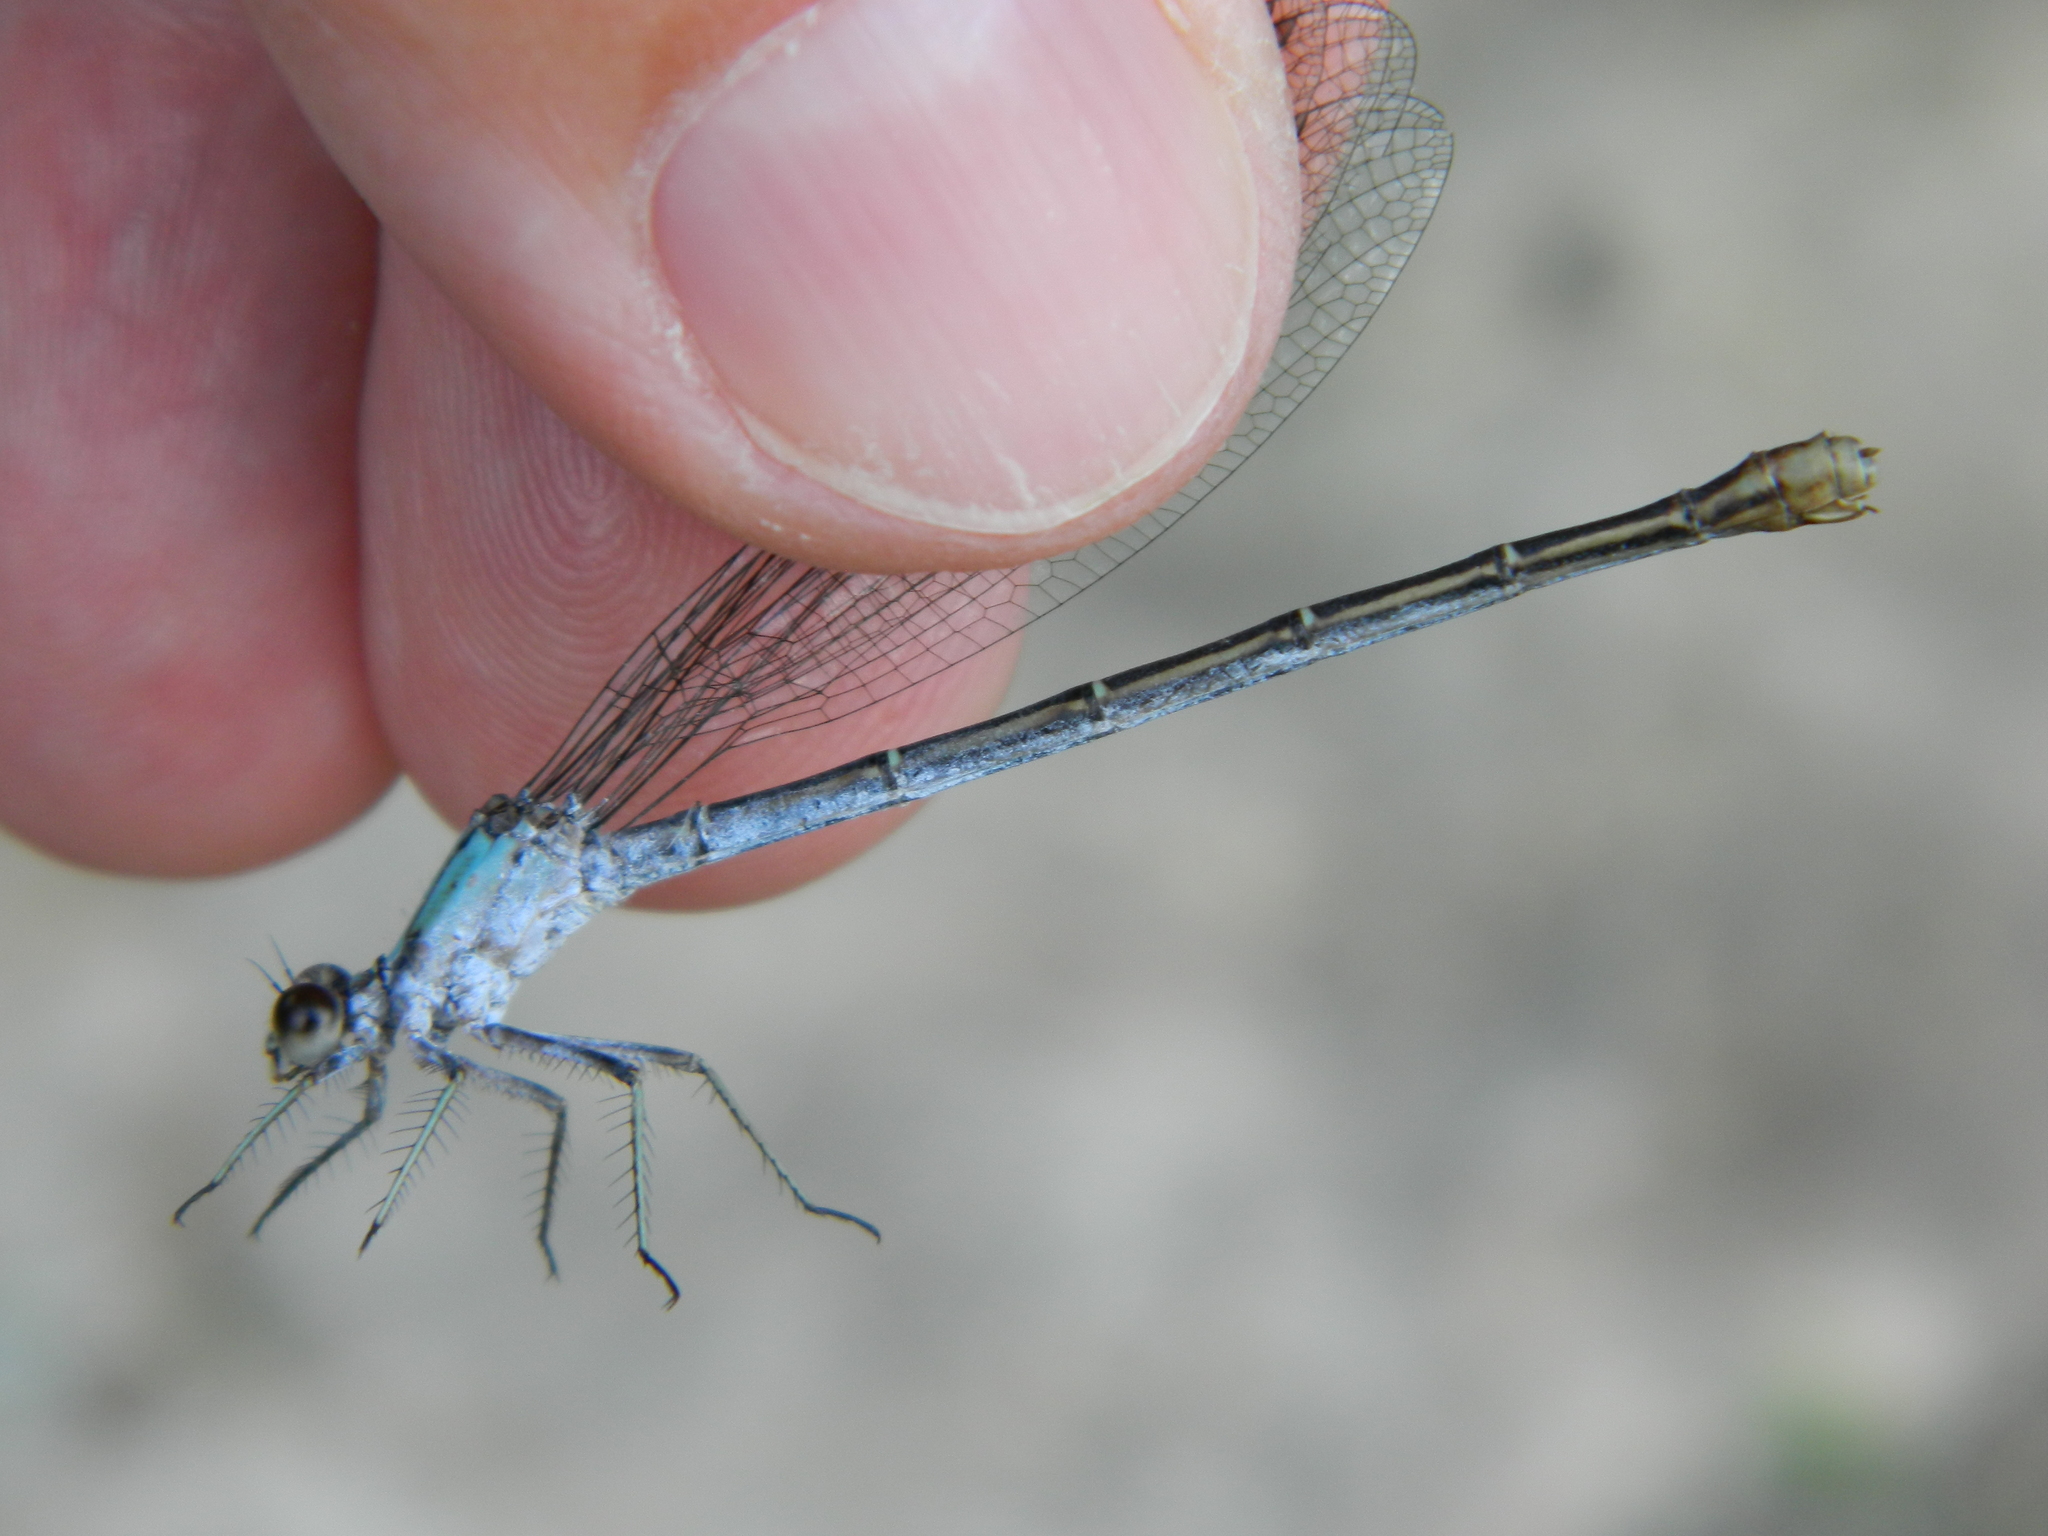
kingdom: Animalia
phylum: Arthropoda
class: Insecta
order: Odonata
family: Coenagrionidae
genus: Argia
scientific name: Argia moesta
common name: Powdered dancer
